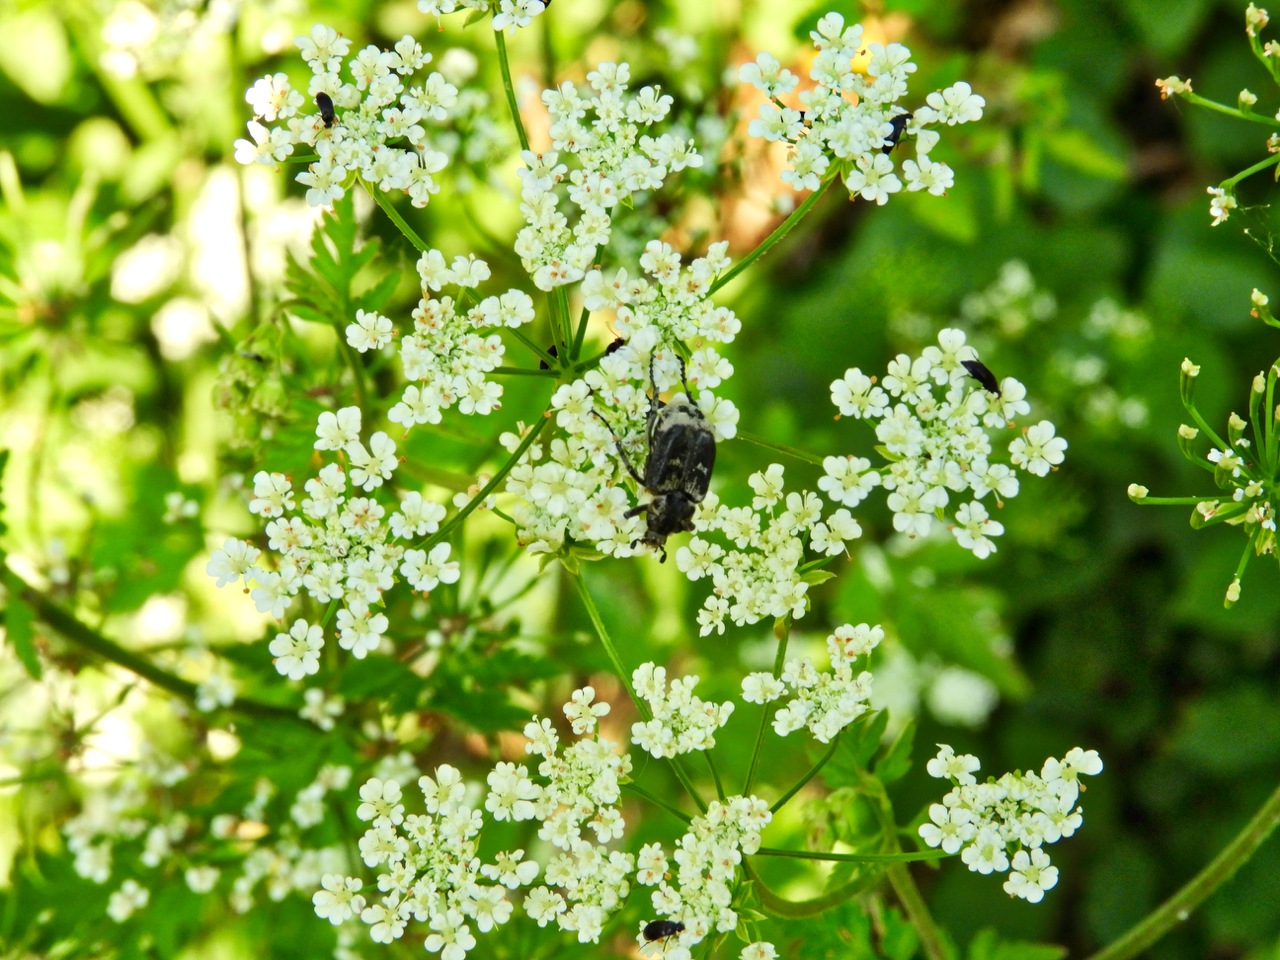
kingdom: Animalia
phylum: Arthropoda
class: Insecta
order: Coleoptera
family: Scarabaeidae
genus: Valgus
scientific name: Valgus hemipterus
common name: Bug flower chafer
